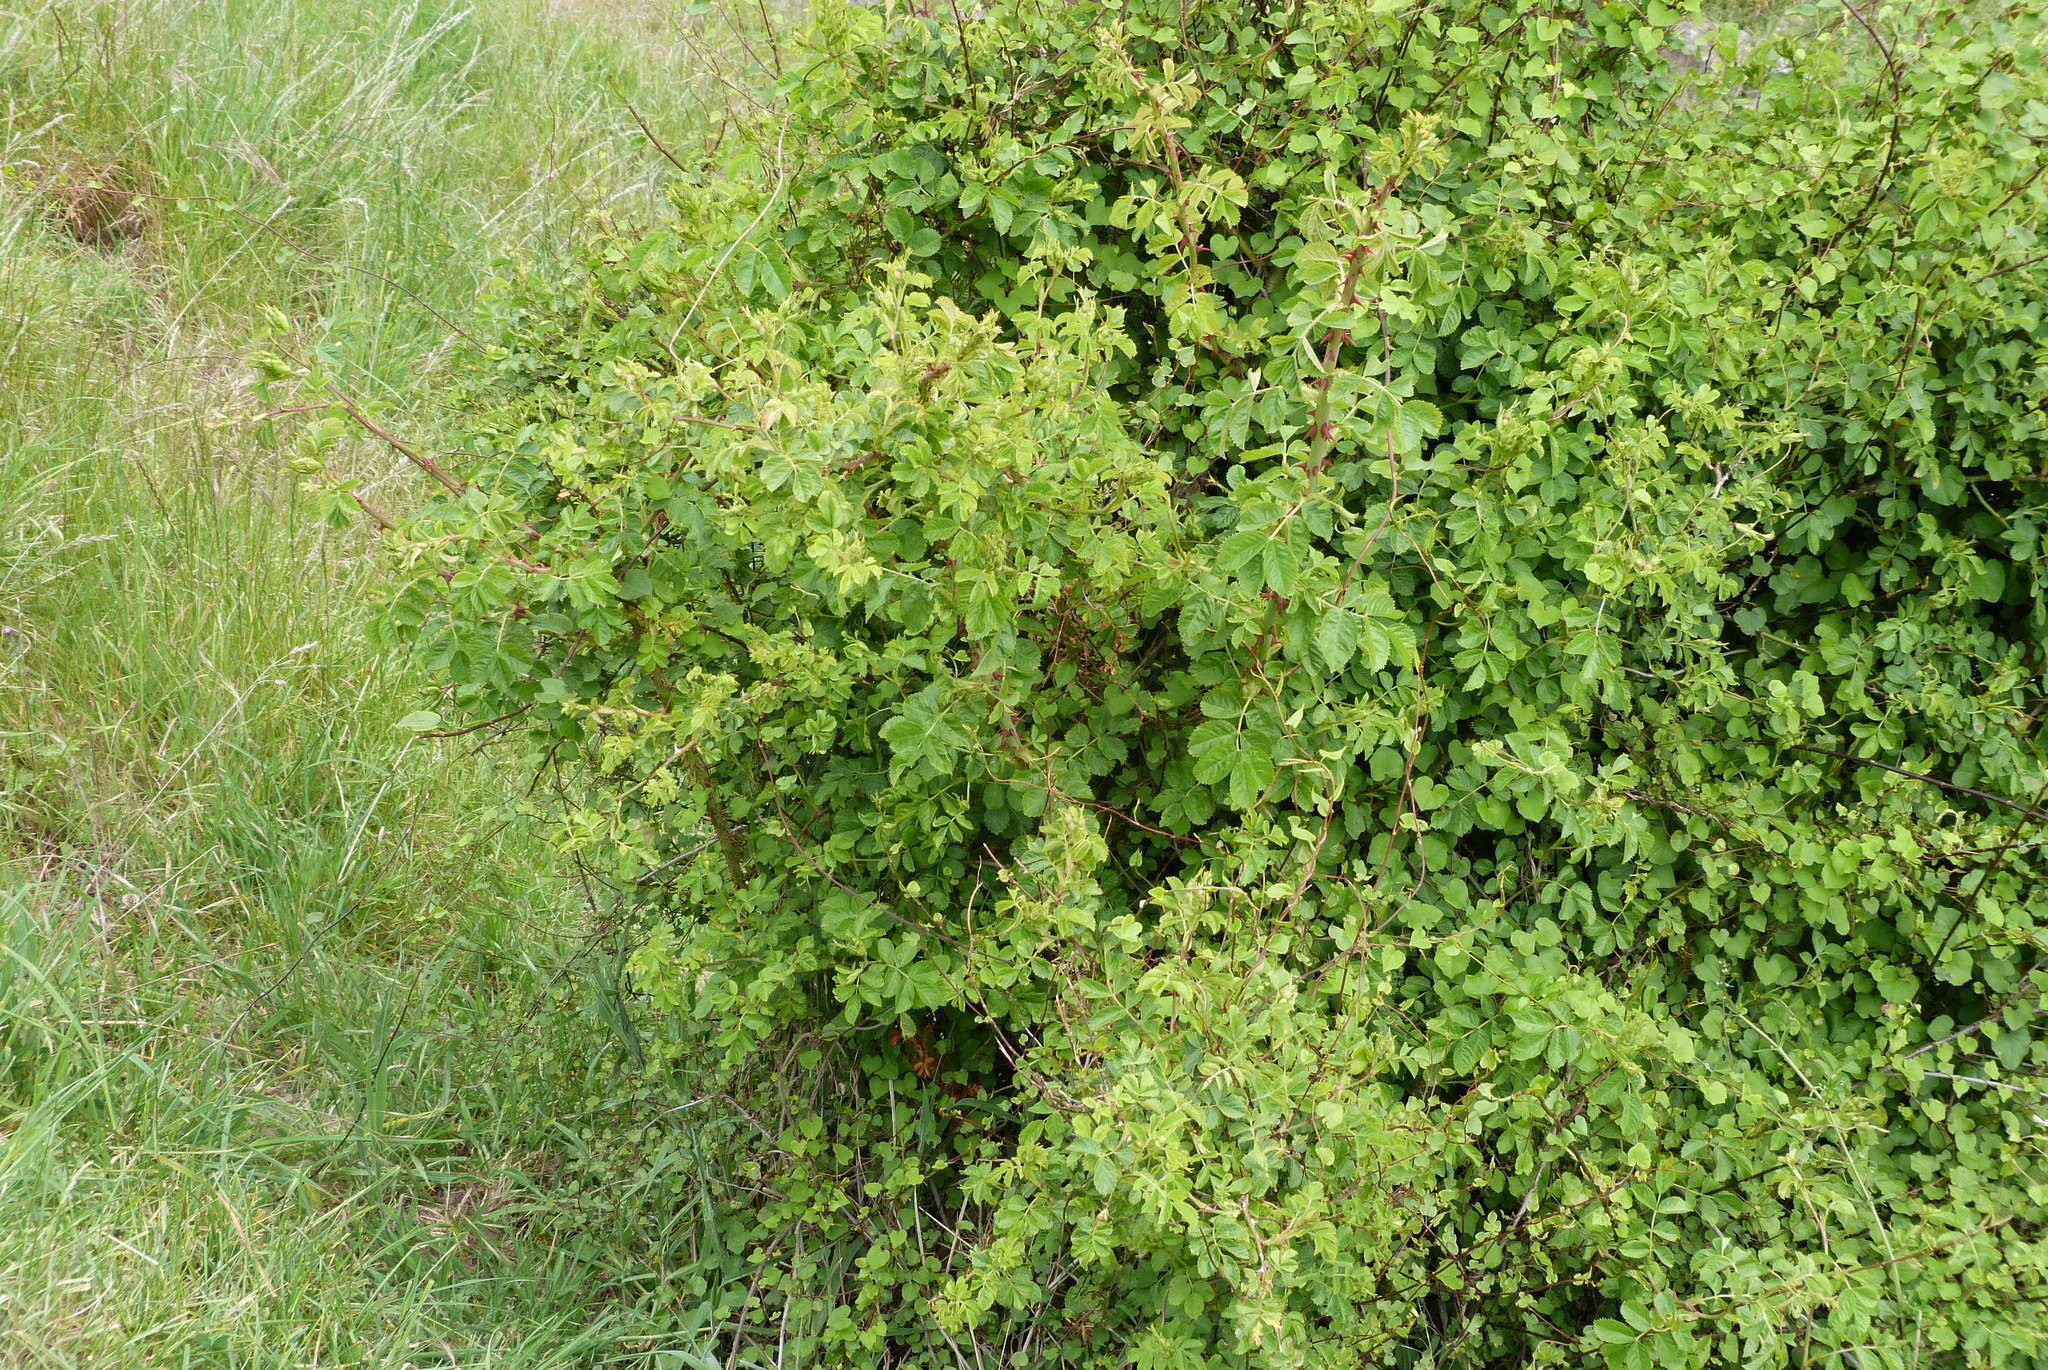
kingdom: Plantae
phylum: Tracheophyta
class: Magnoliopsida
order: Rosales
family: Rosaceae
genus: Rosa
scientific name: Rosa rubiginosa
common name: Sweet-briar
